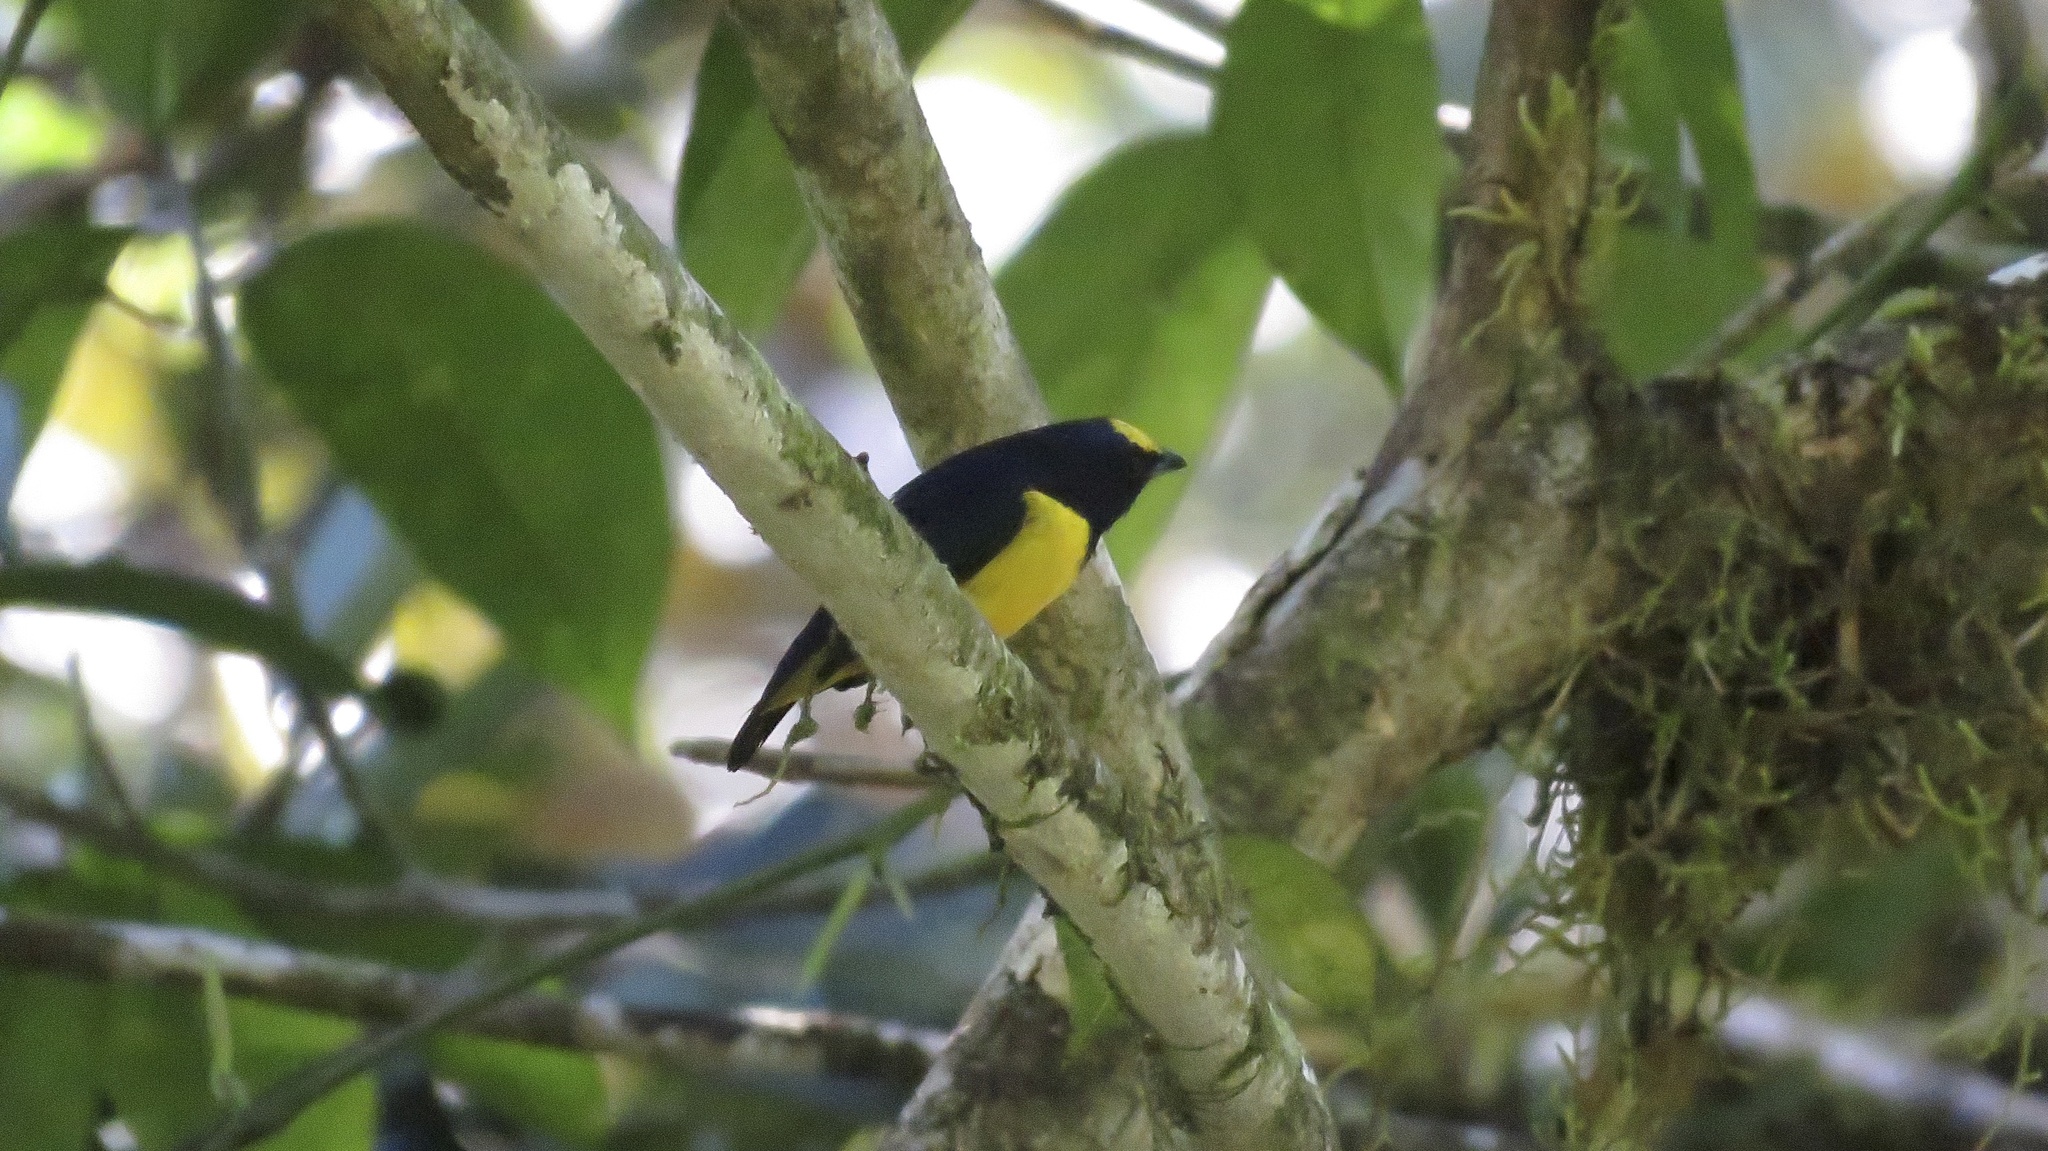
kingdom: Animalia
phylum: Chordata
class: Aves
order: Passeriformes
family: Fringillidae
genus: Euphonia
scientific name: Euphonia imitans
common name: Spot-crowned euphonia
